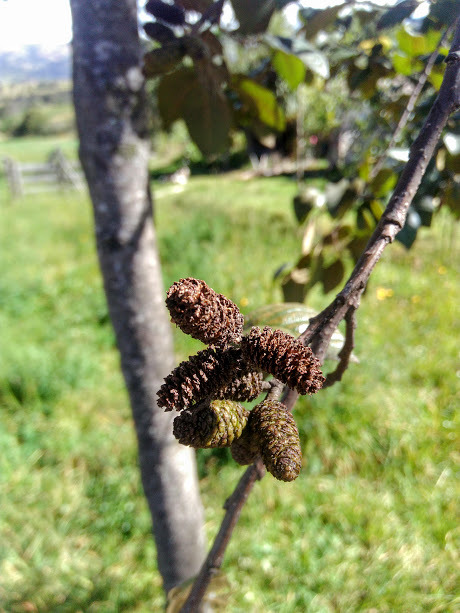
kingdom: Plantae
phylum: Tracheophyta
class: Magnoliopsida
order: Fagales
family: Betulaceae
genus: Alnus
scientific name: Alnus acuminata
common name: Alder
